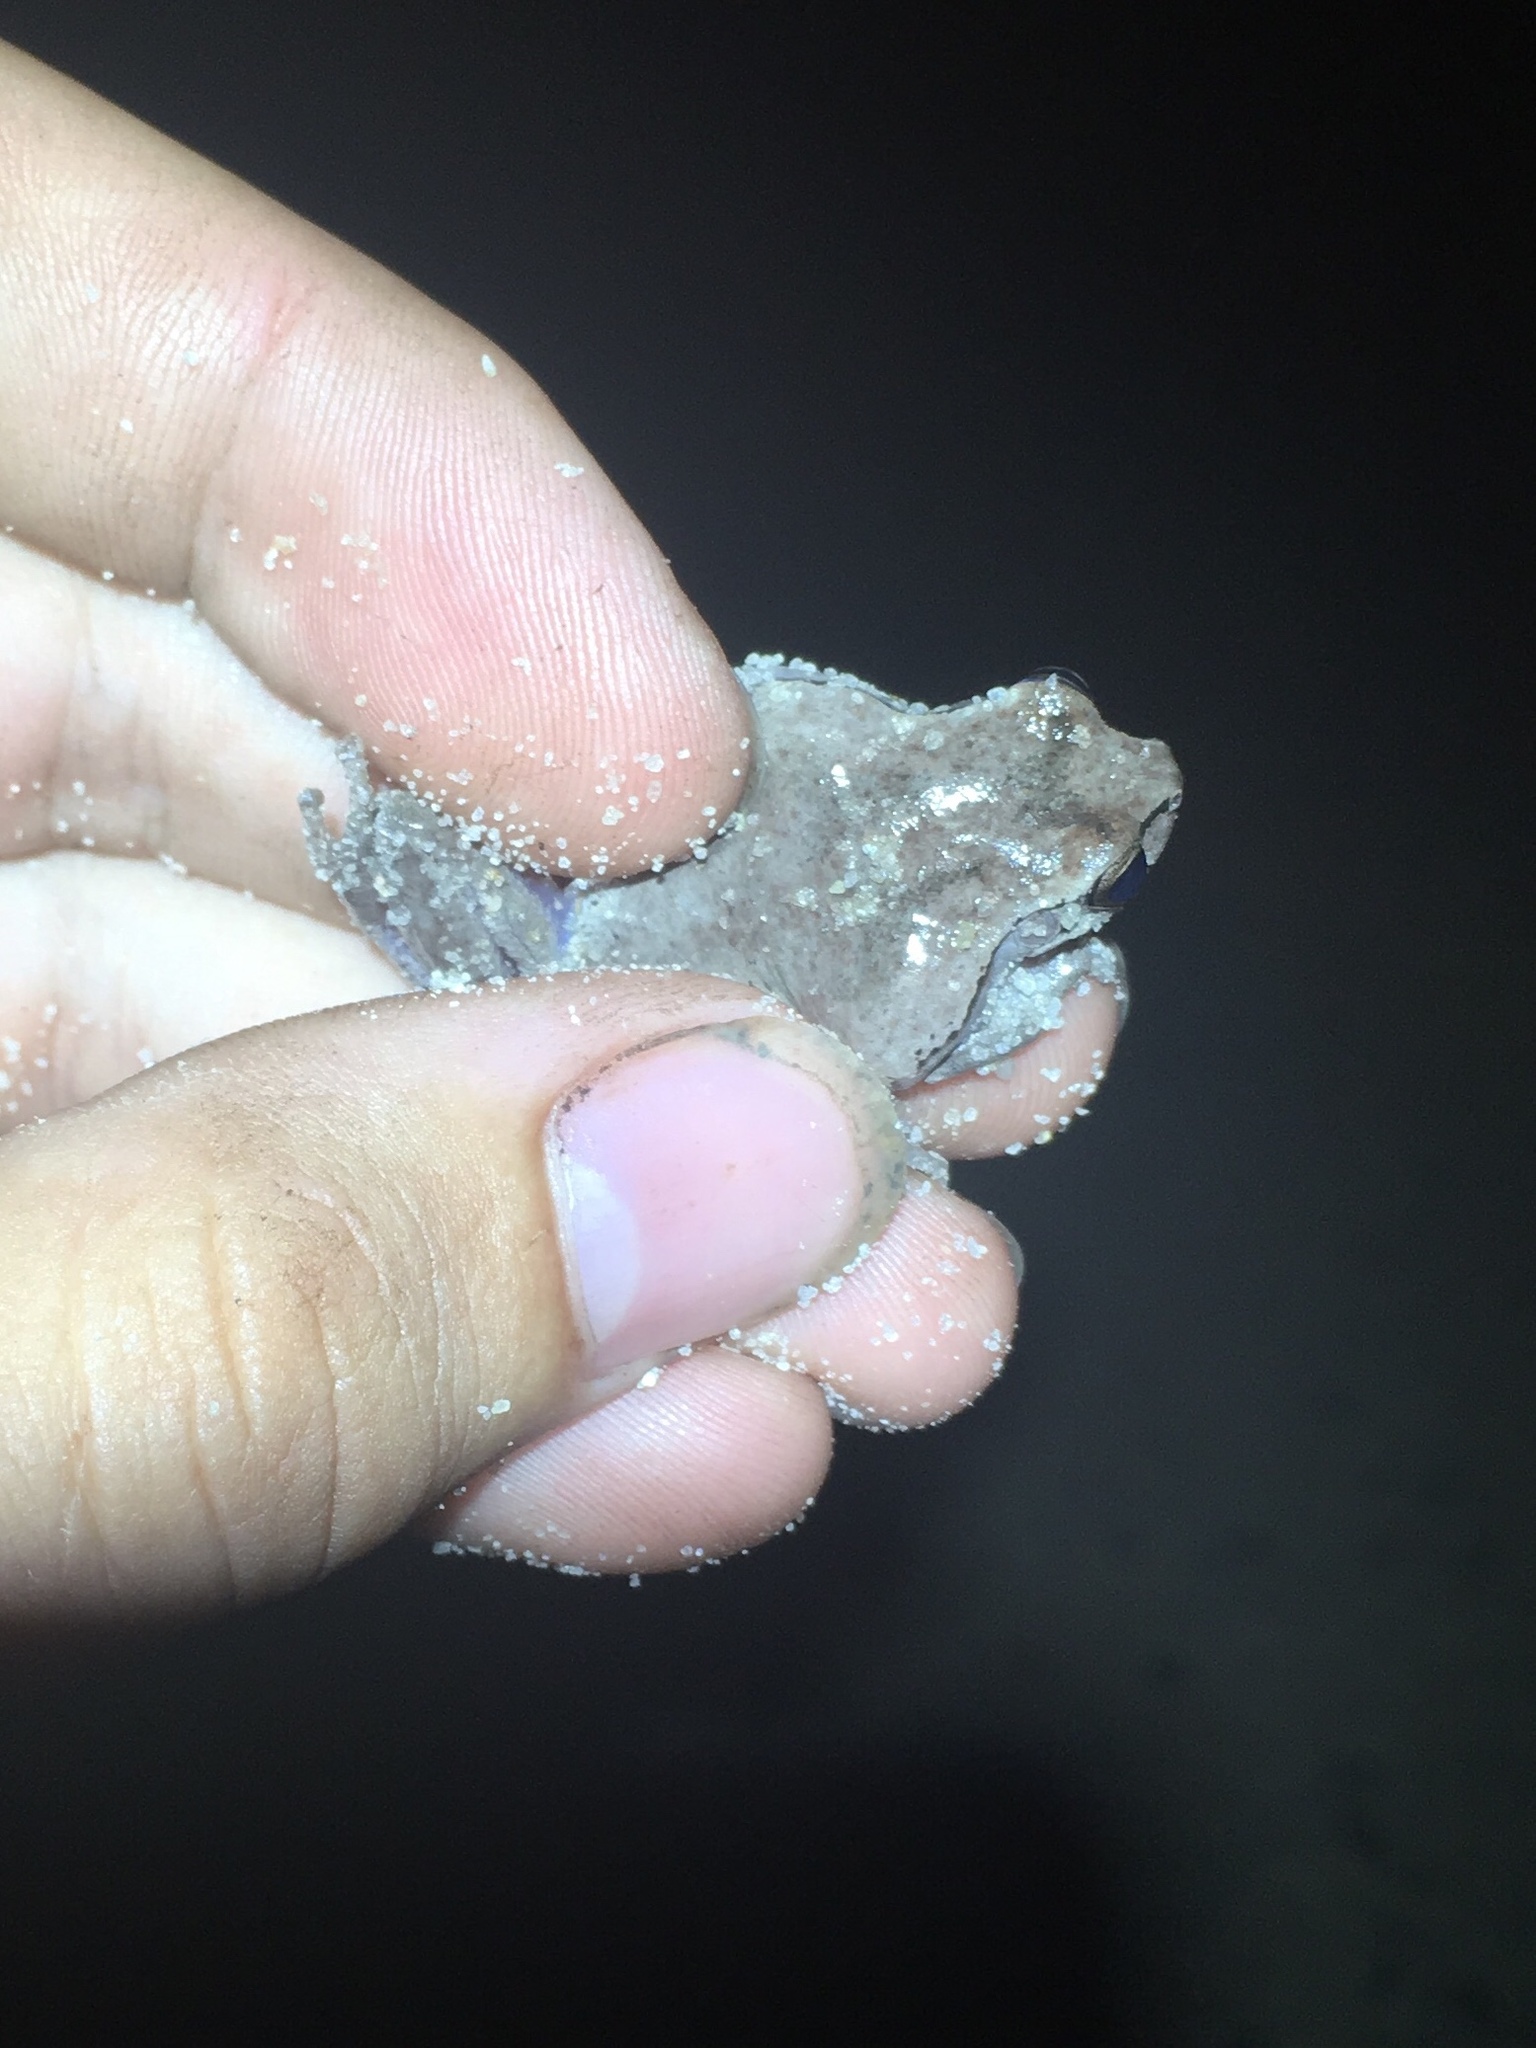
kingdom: Animalia
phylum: Chordata
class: Amphibia
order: Anura
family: Hylidae
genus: Hyla
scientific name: Hyla femoralis
